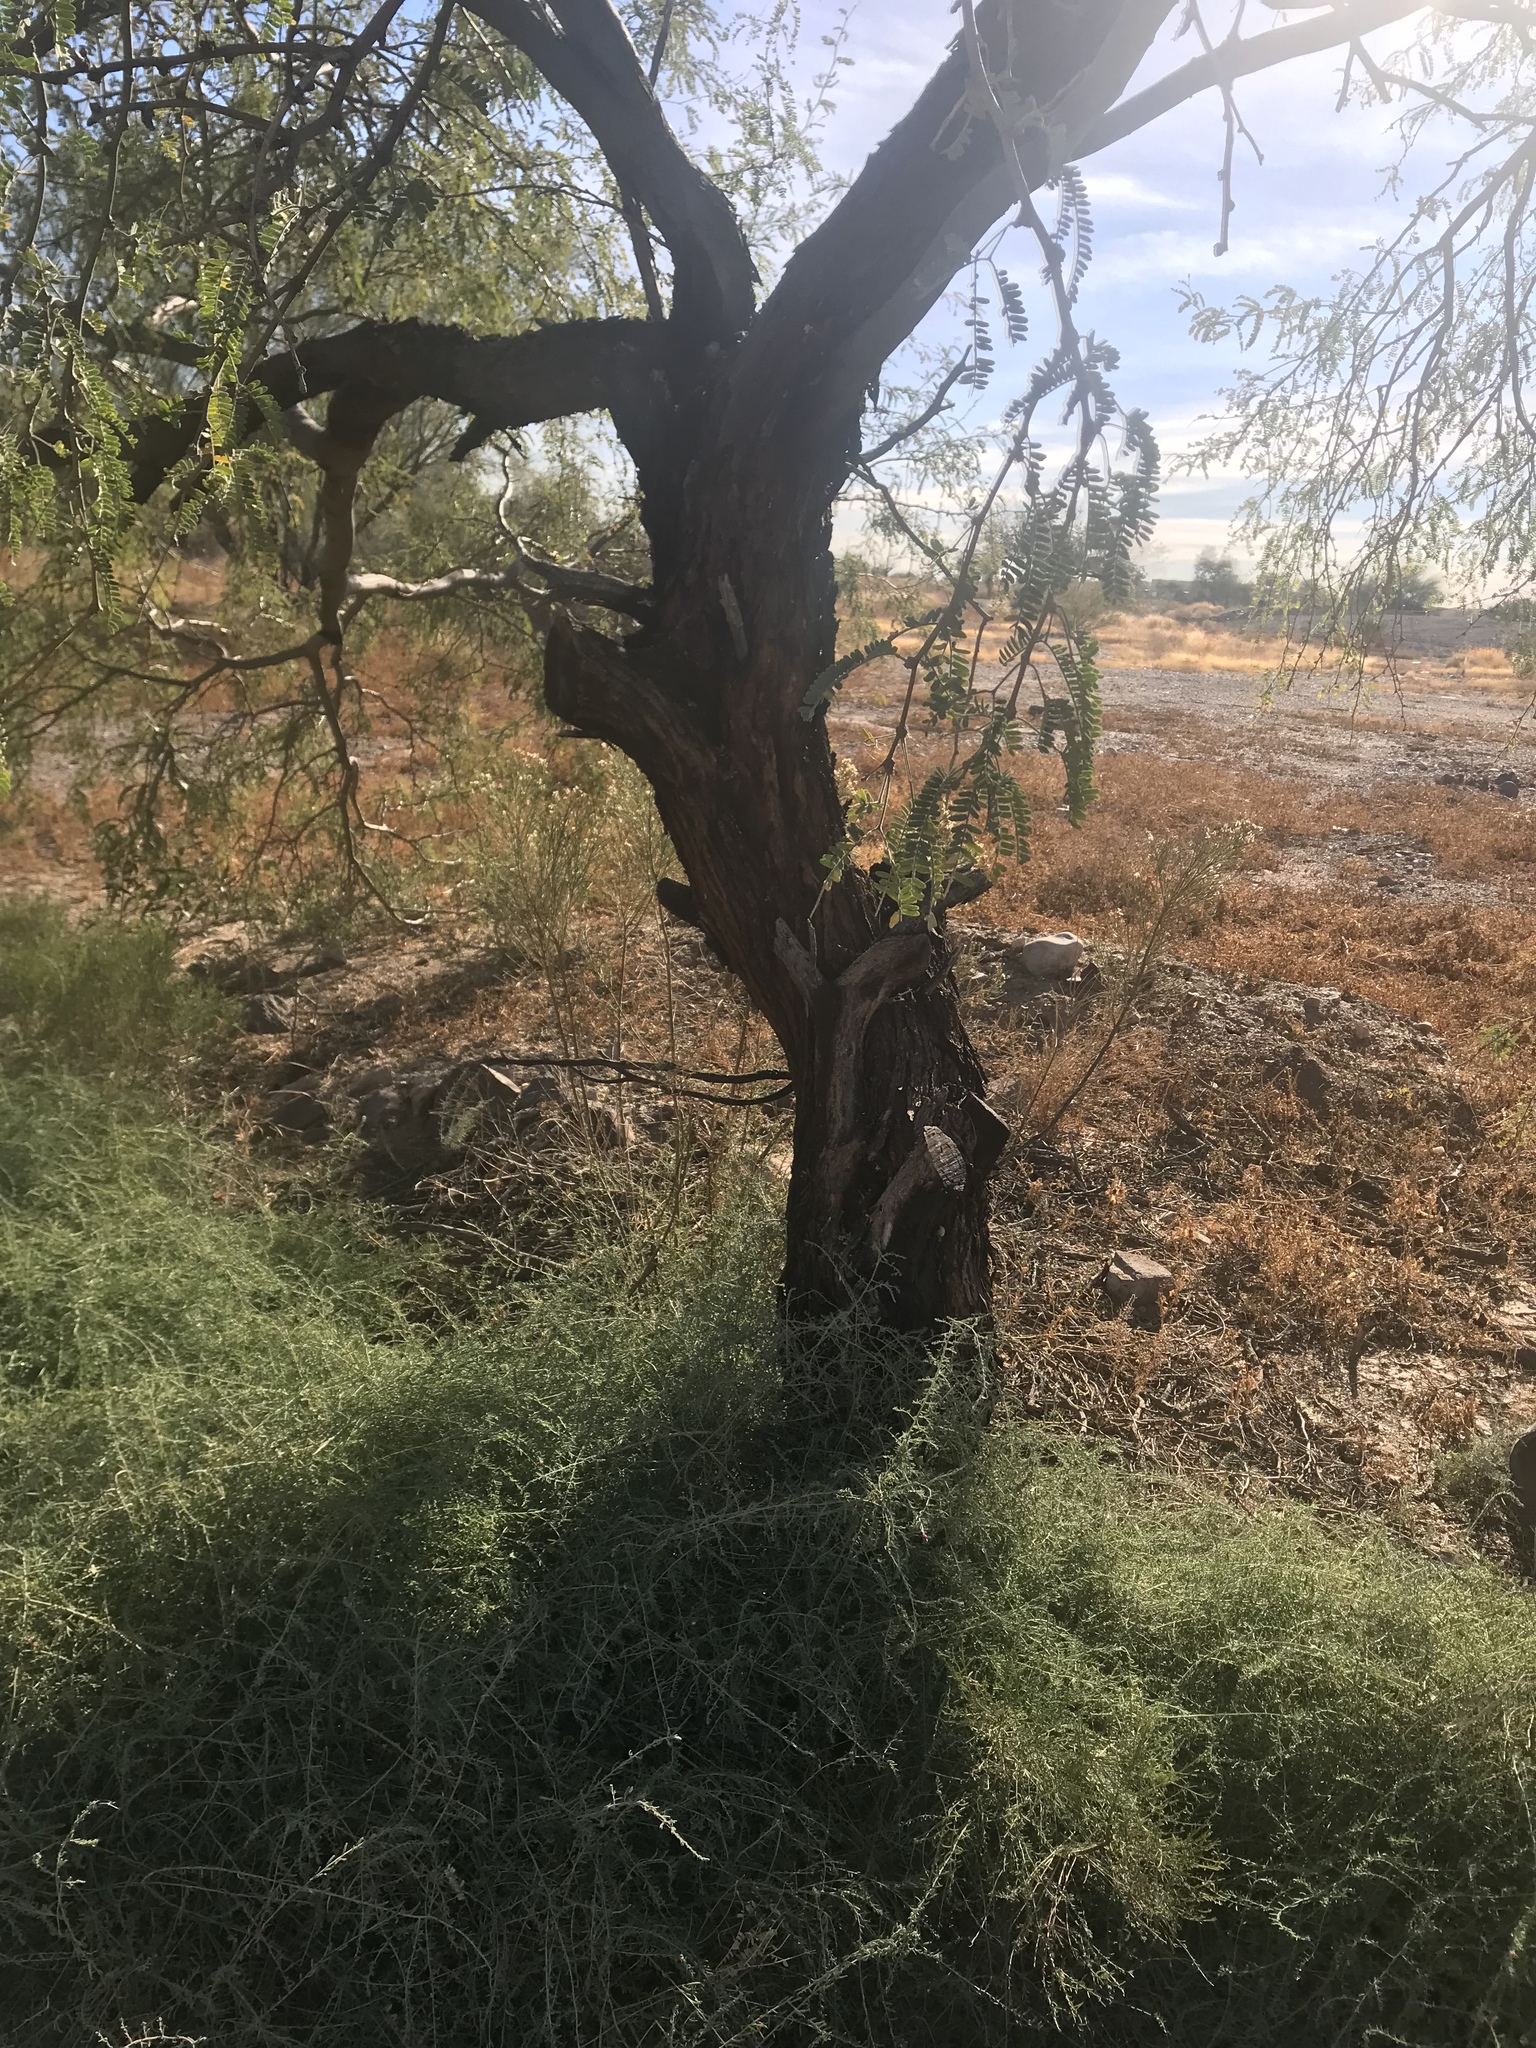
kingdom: Plantae
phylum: Tracheophyta
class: Magnoliopsida
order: Fabales
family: Fabaceae
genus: Prosopis
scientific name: Prosopis glandulosa
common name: Honey mesquite
